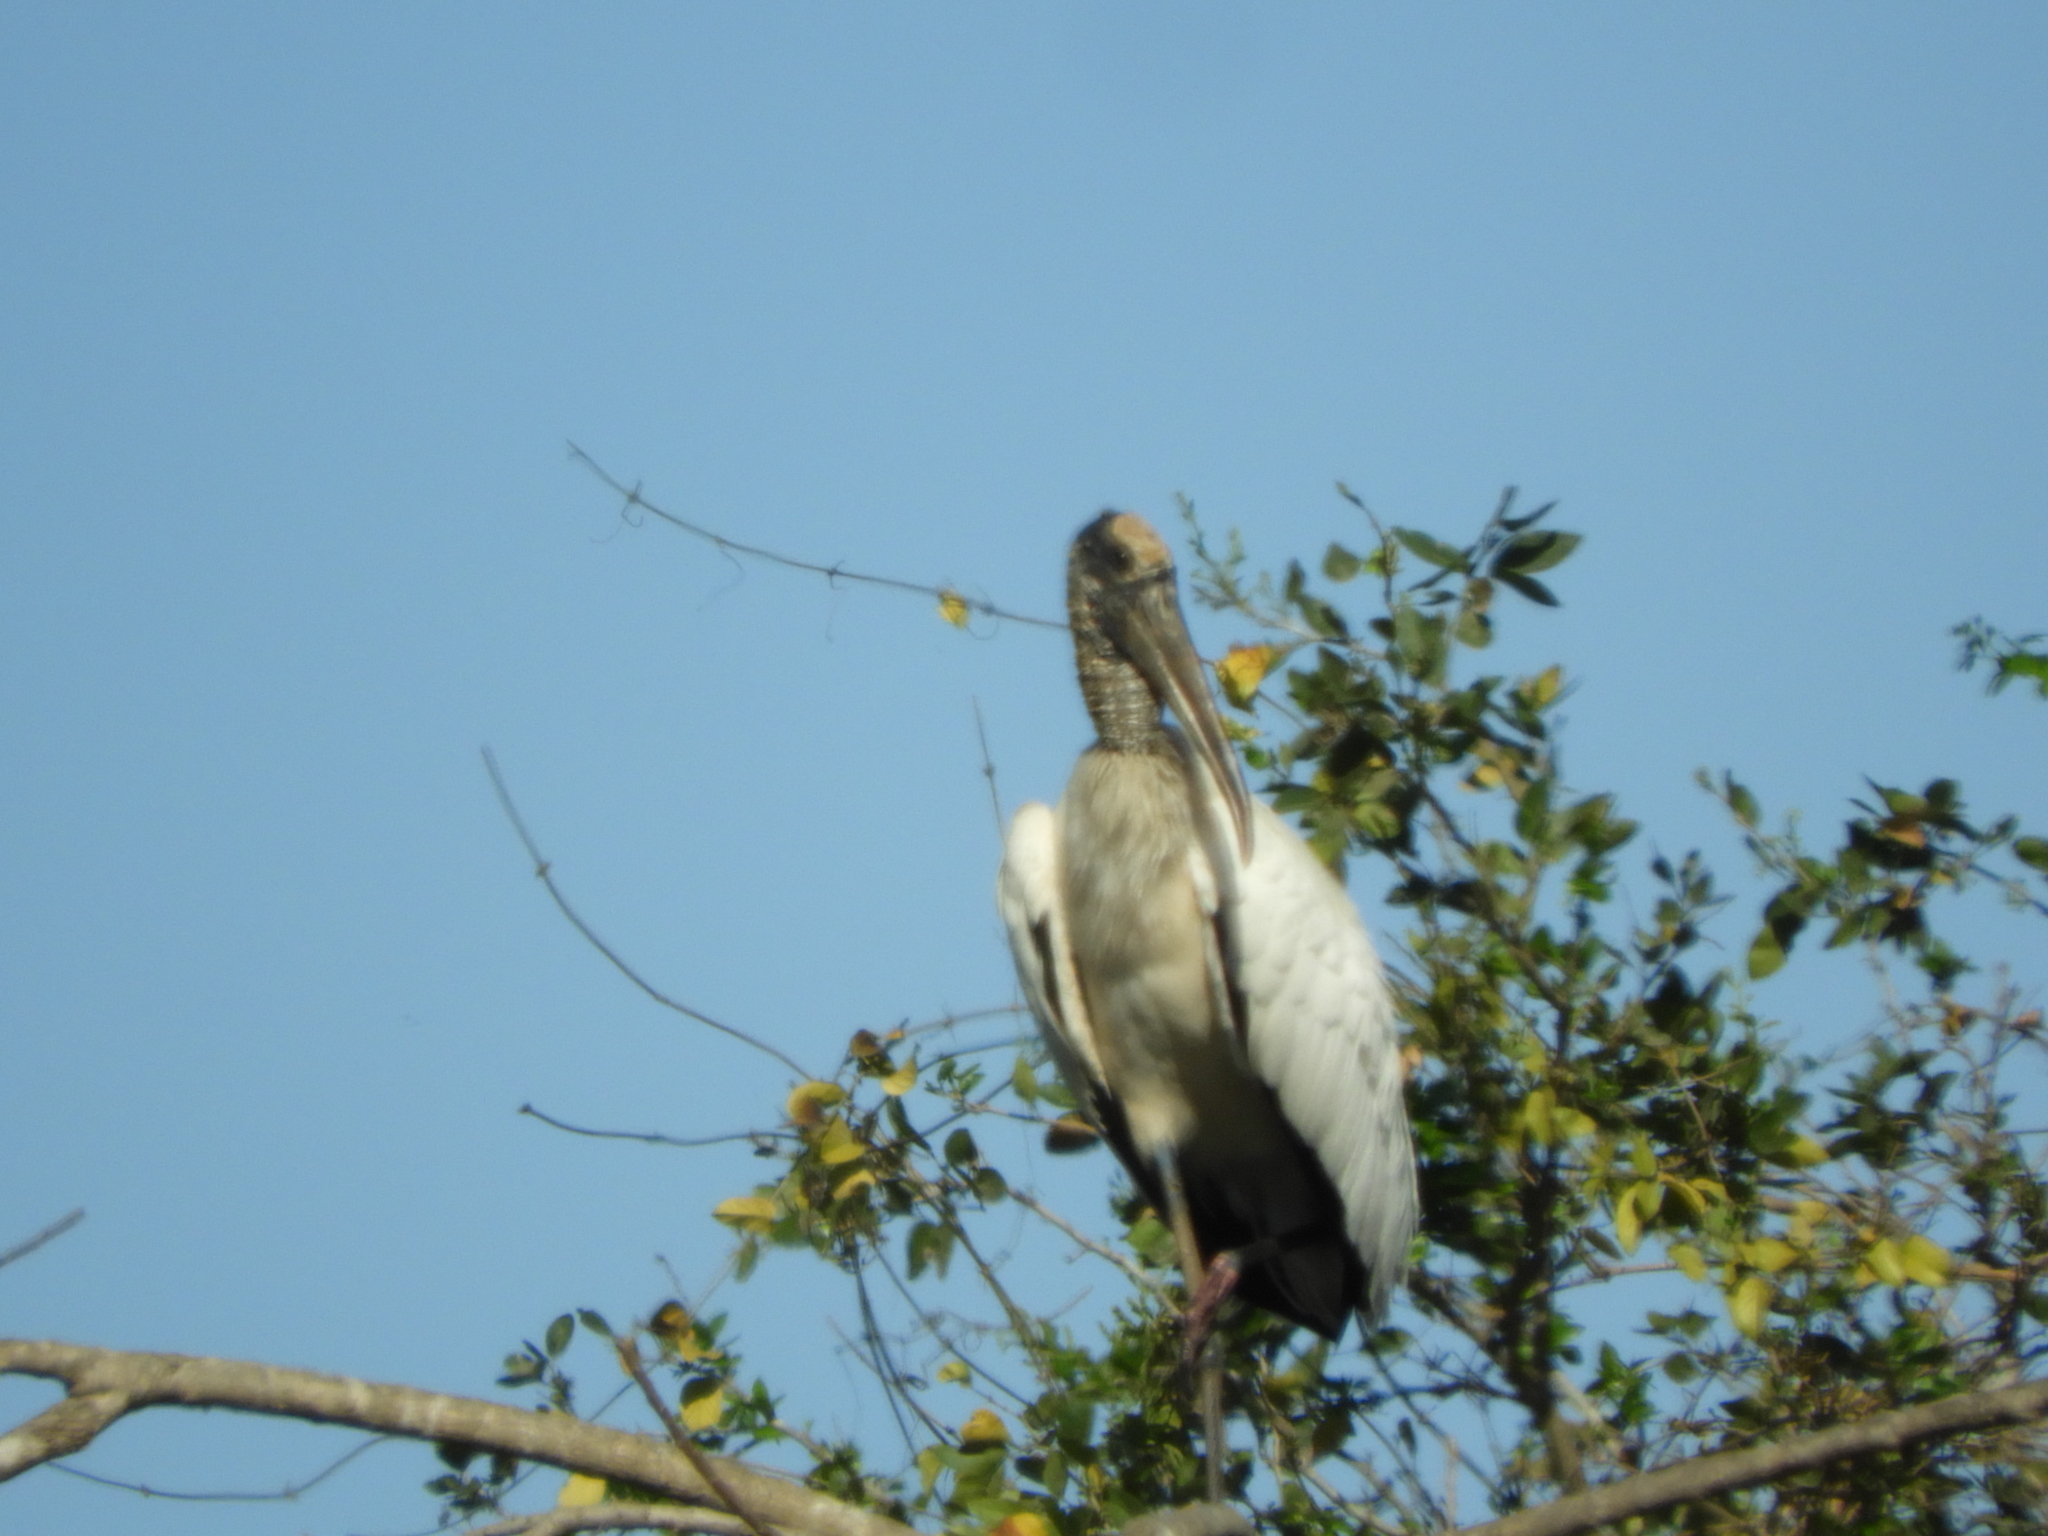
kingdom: Animalia
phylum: Chordata
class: Aves
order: Ciconiiformes
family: Ciconiidae
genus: Mycteria
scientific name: Mycteria americana
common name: Wood stork
